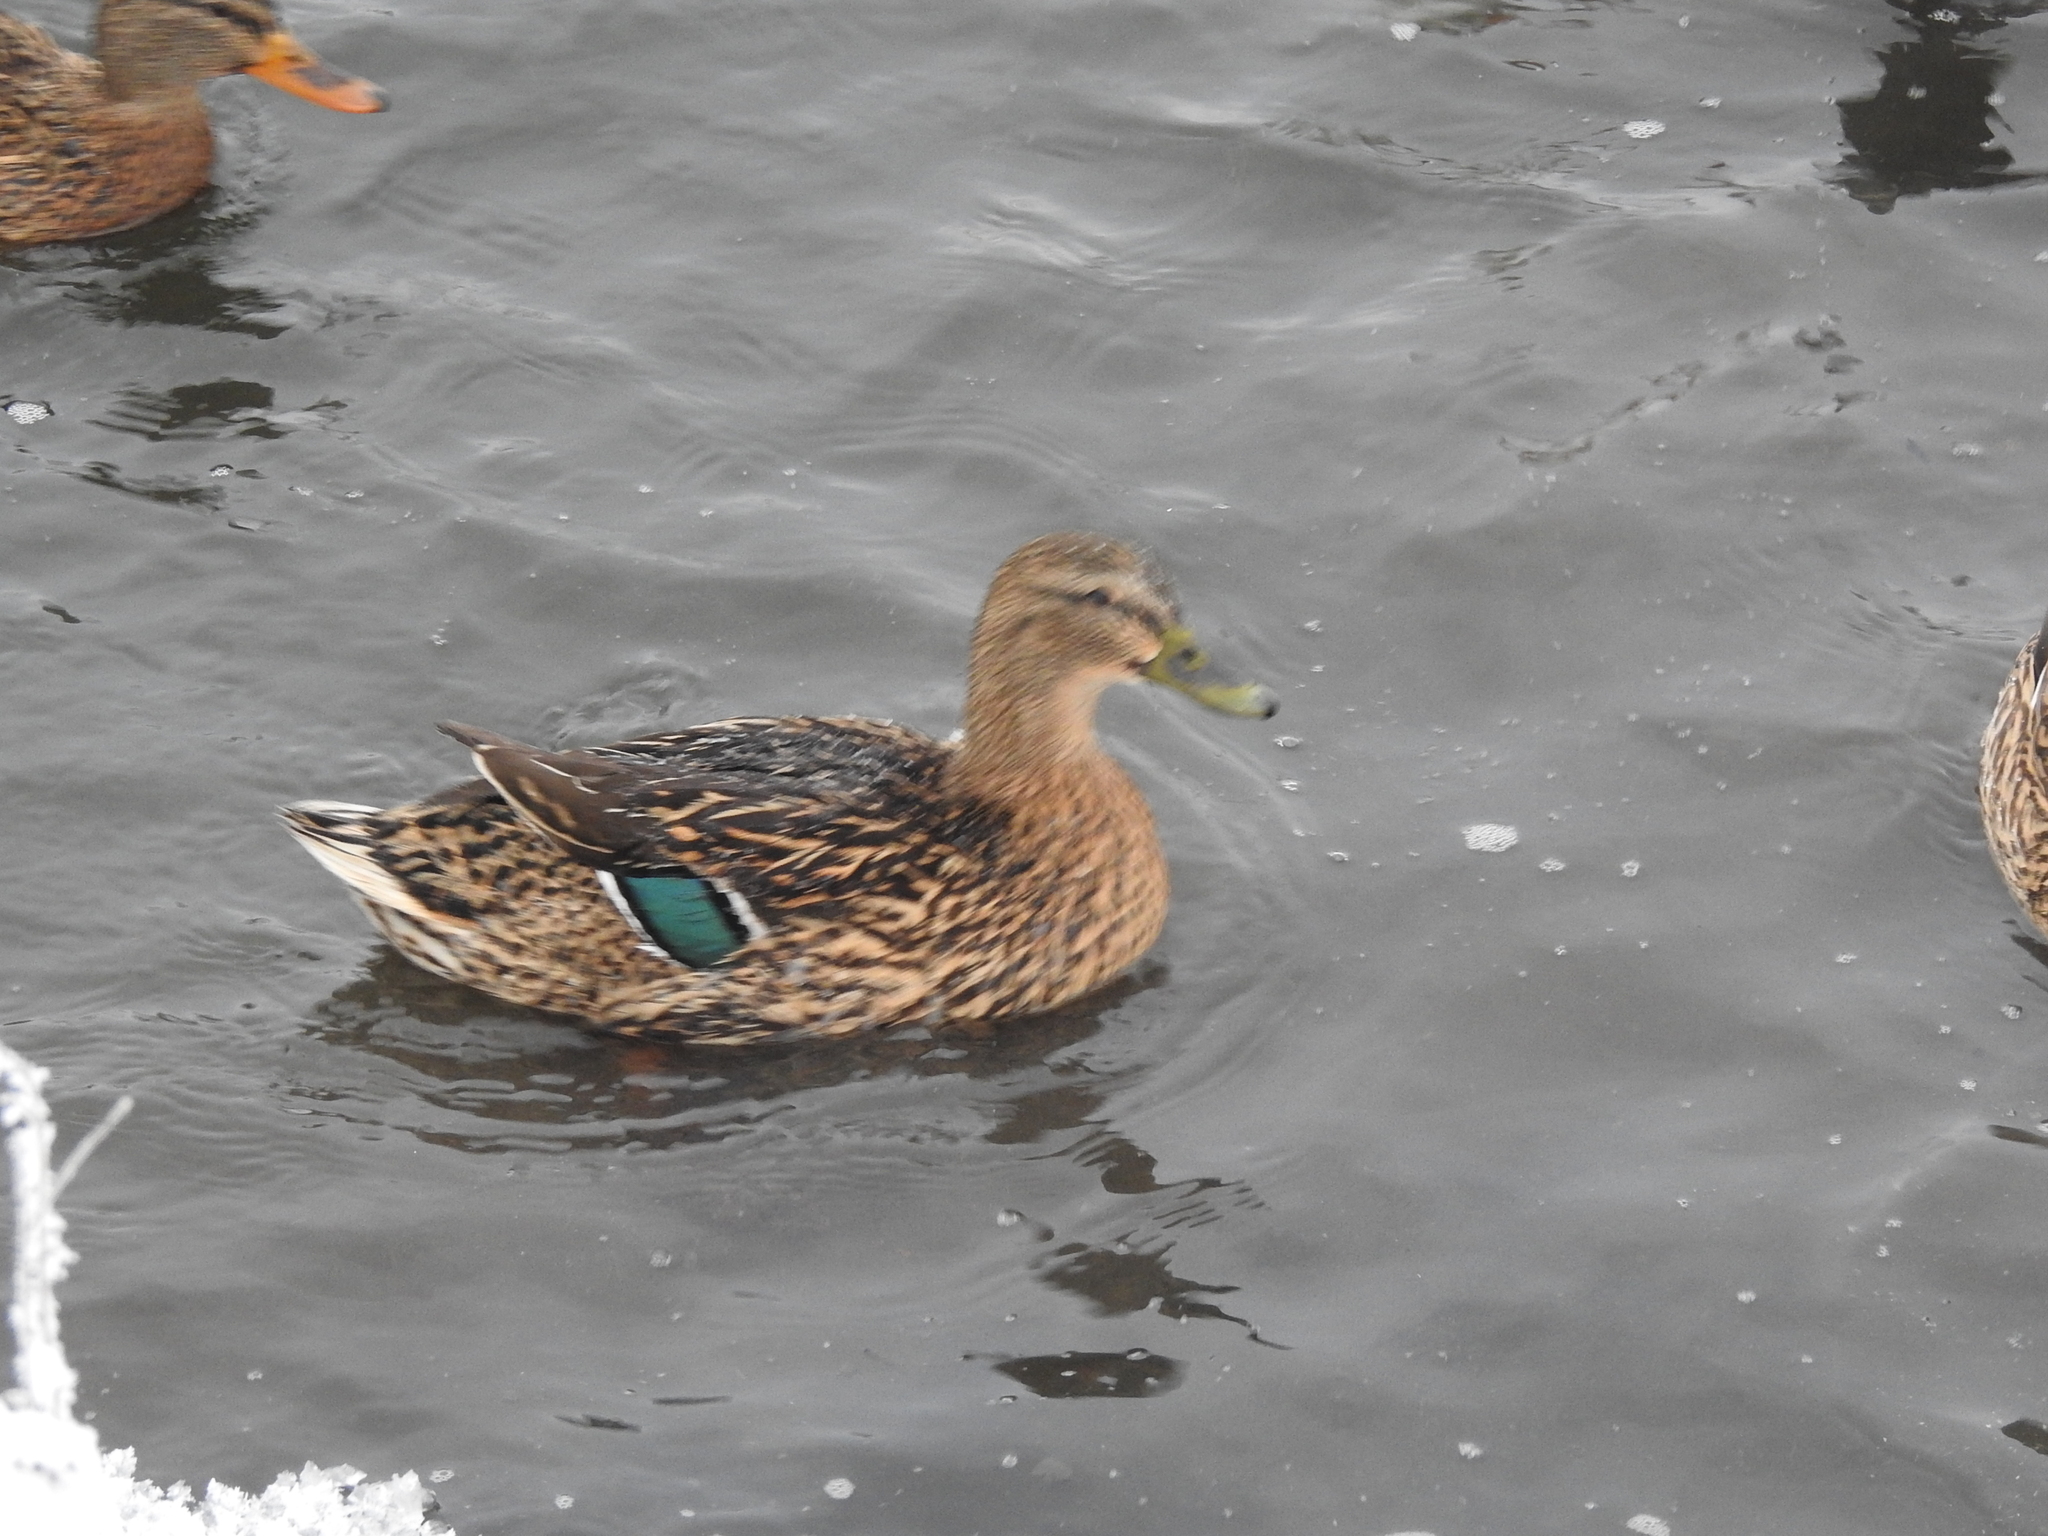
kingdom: Animalia
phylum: Chordata
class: Aves
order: Anseriformes
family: Anatidae
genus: Anas
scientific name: Anas platyrhynchos
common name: Mallard
